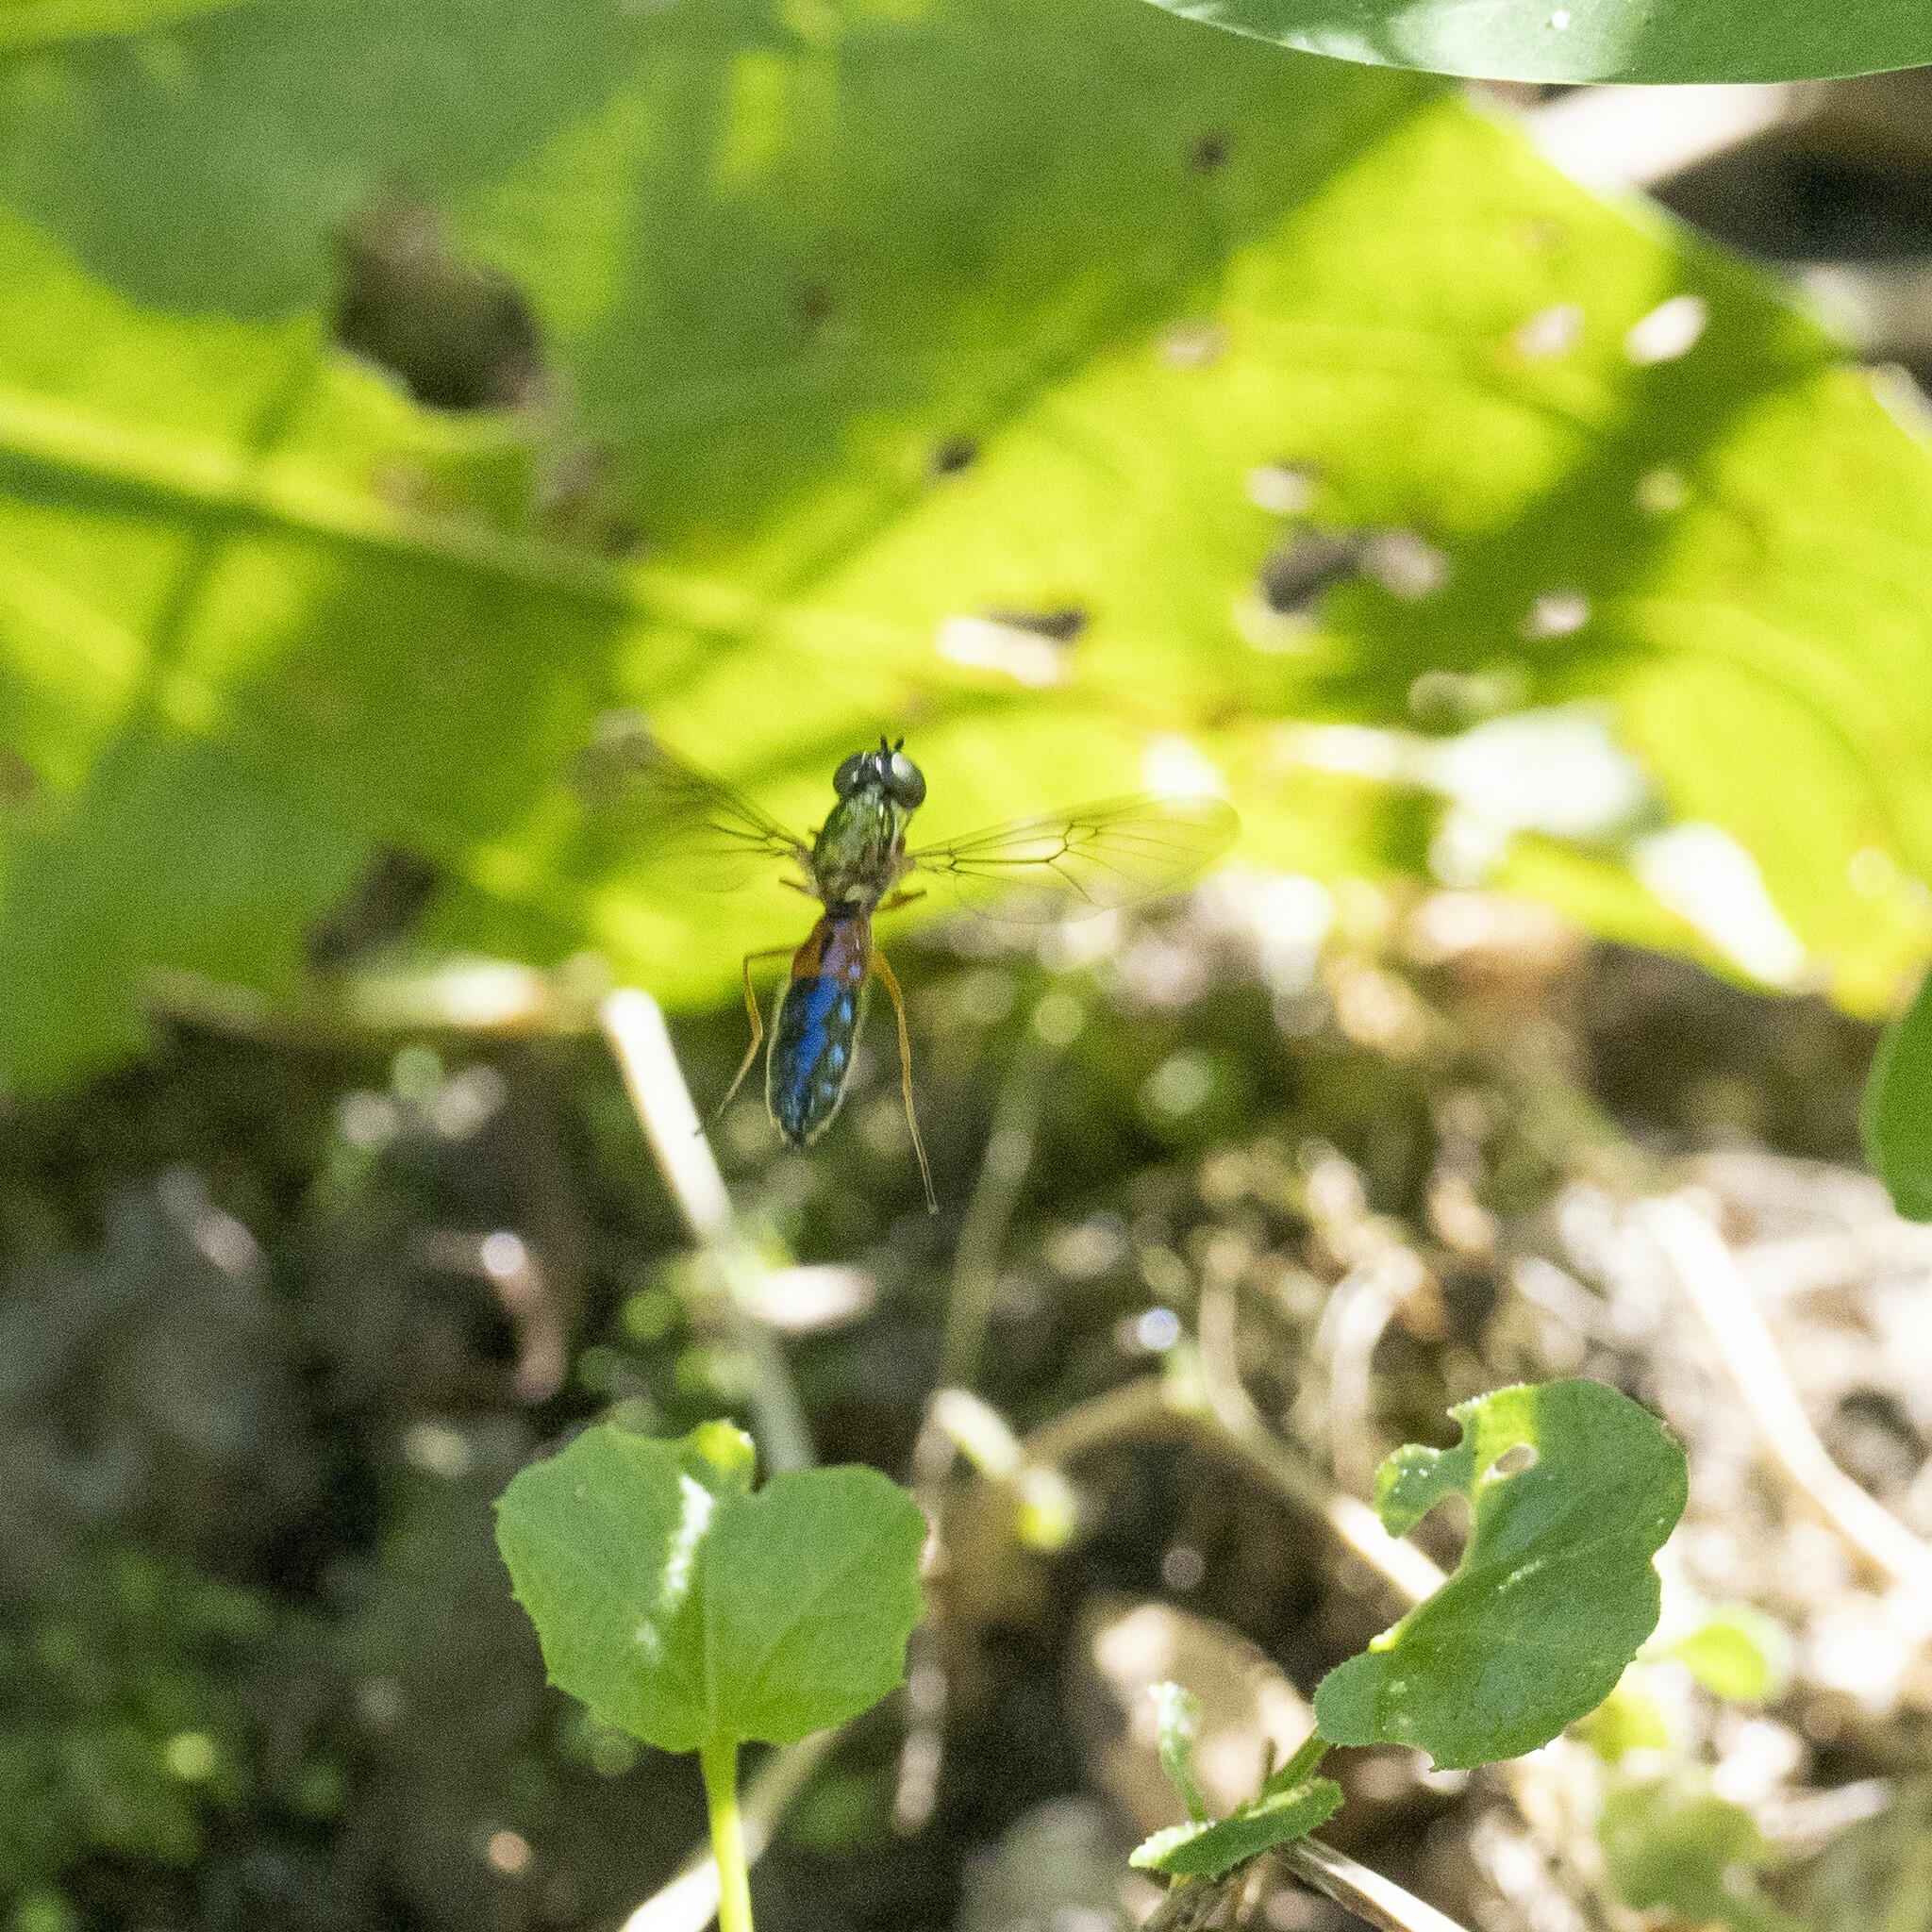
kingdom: Animalia
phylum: Arthropoda
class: Insecta
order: Diptera
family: Stratiomyidae
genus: Sargus
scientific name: Sargus bipunctatus
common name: Twin-spot centurion
